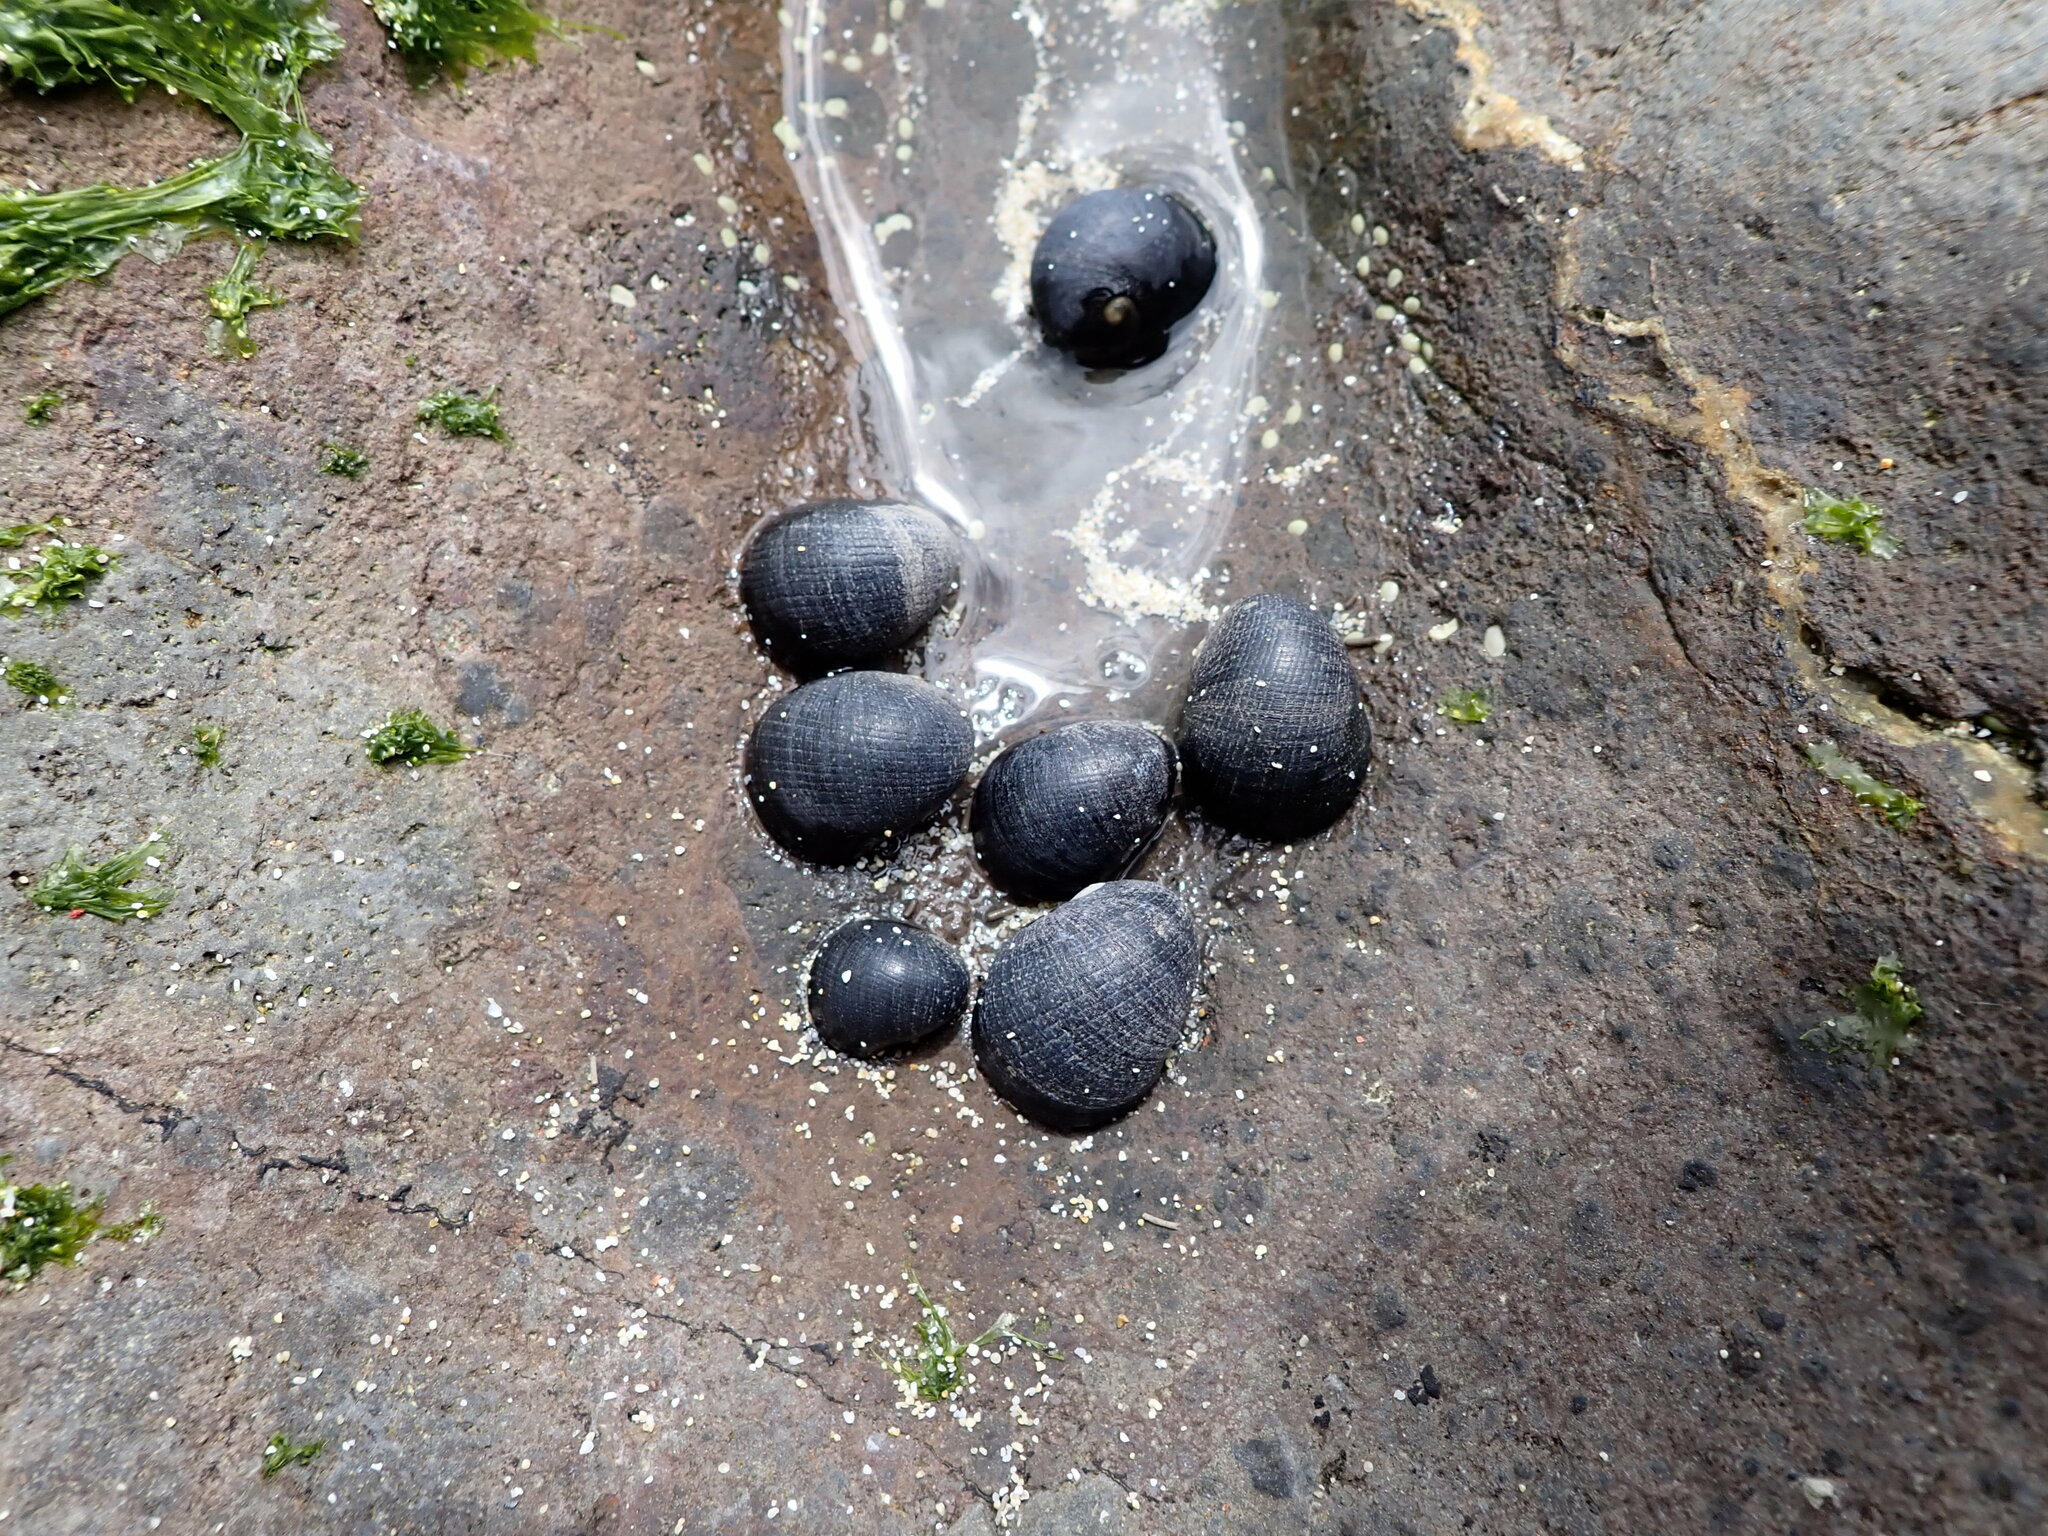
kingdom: Animalia
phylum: Mollusca
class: Gastropoda
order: Cycloneritida
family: Neritidae
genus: Nerita
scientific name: Nerita melanotragus
